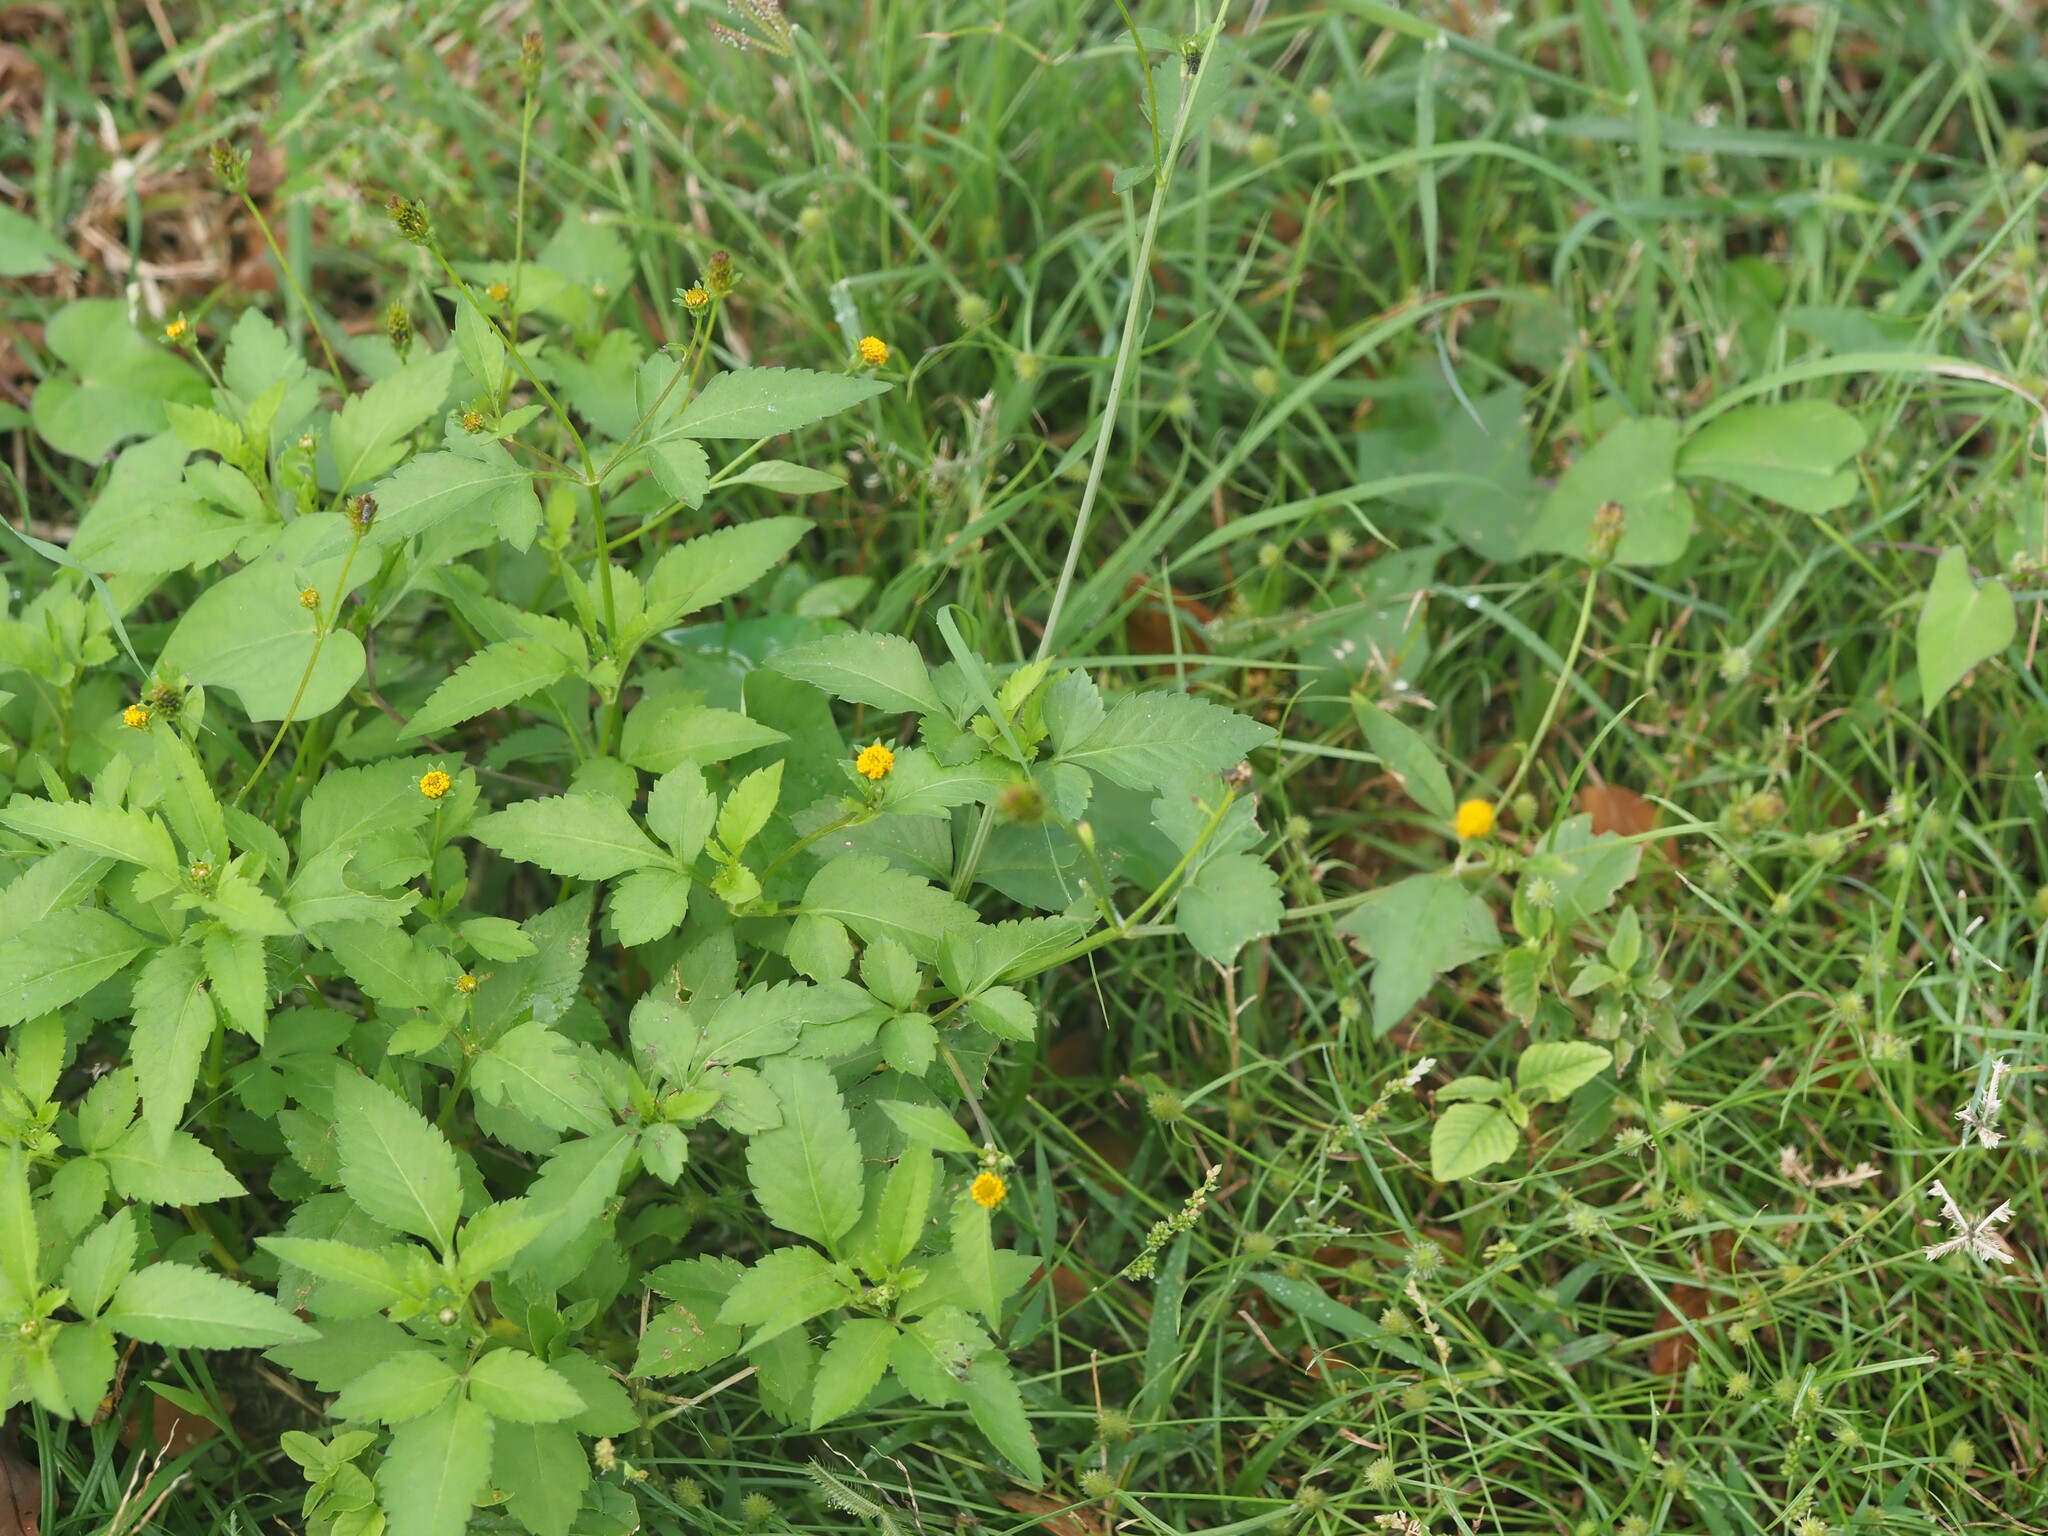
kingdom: Plantae
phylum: Tracheophyta
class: Magnoliopsida
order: Asterales
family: Asteraceae
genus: Bidens
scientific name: Bidens pilosa
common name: Black-jack
